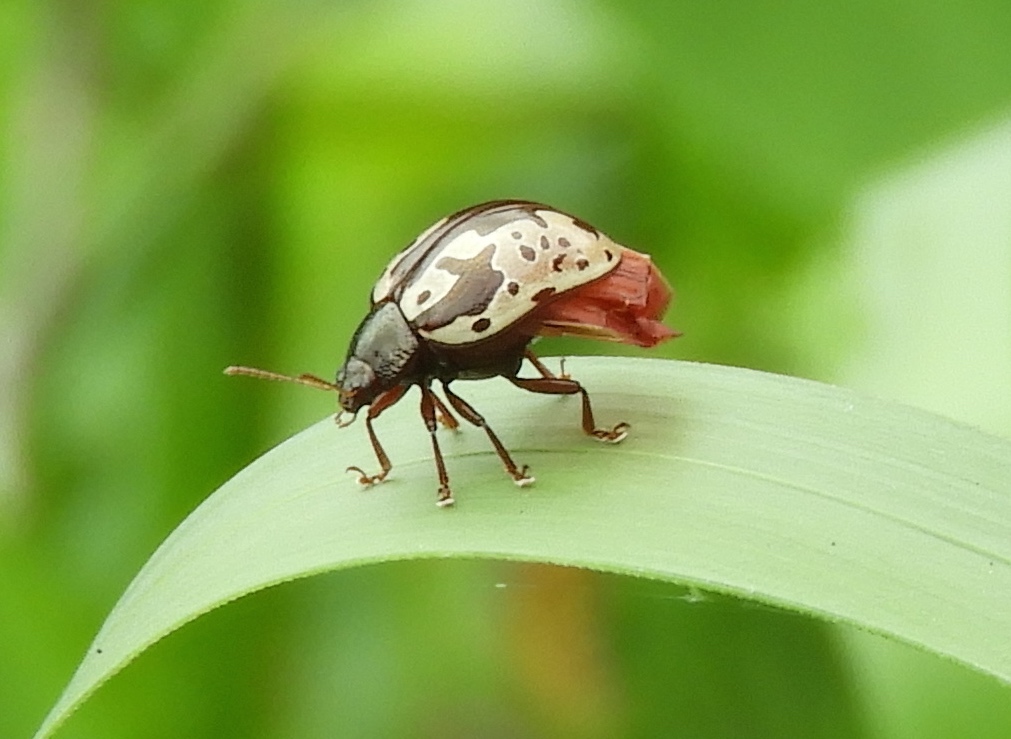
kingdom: Animalia
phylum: Arthropoda
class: Insecta
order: Coleoptera
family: Chrysomelidae
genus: Calligrapha
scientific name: Calligrapha intermedia
